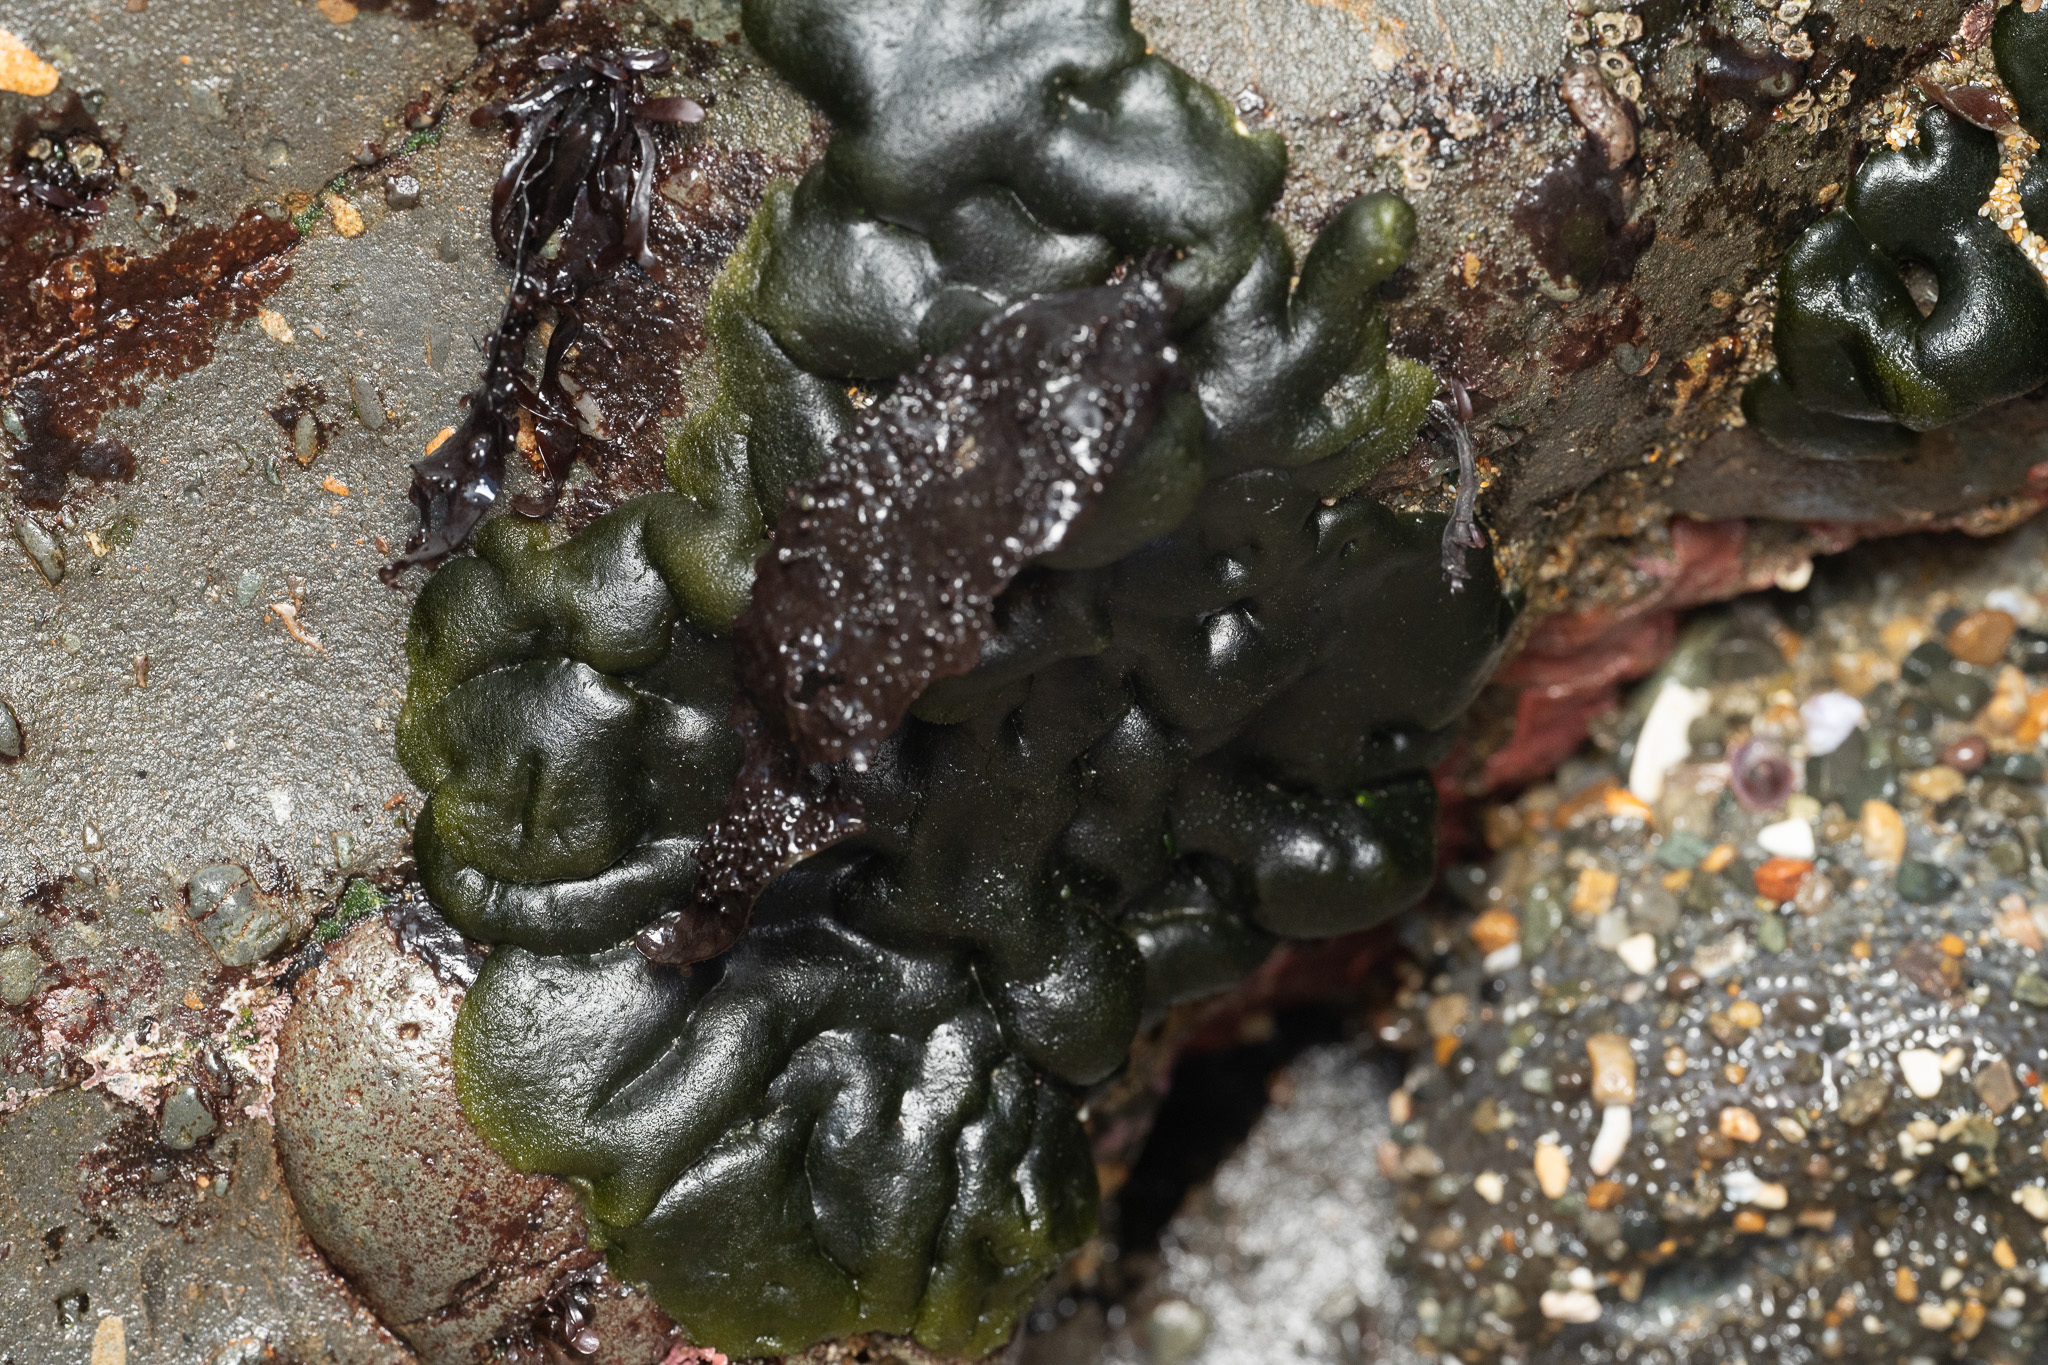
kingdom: Plantae
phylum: Chlorophyta
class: Ulvophyceae
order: Bryopsidales
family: Codiaceae
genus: Codium
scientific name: Codium setchellii
